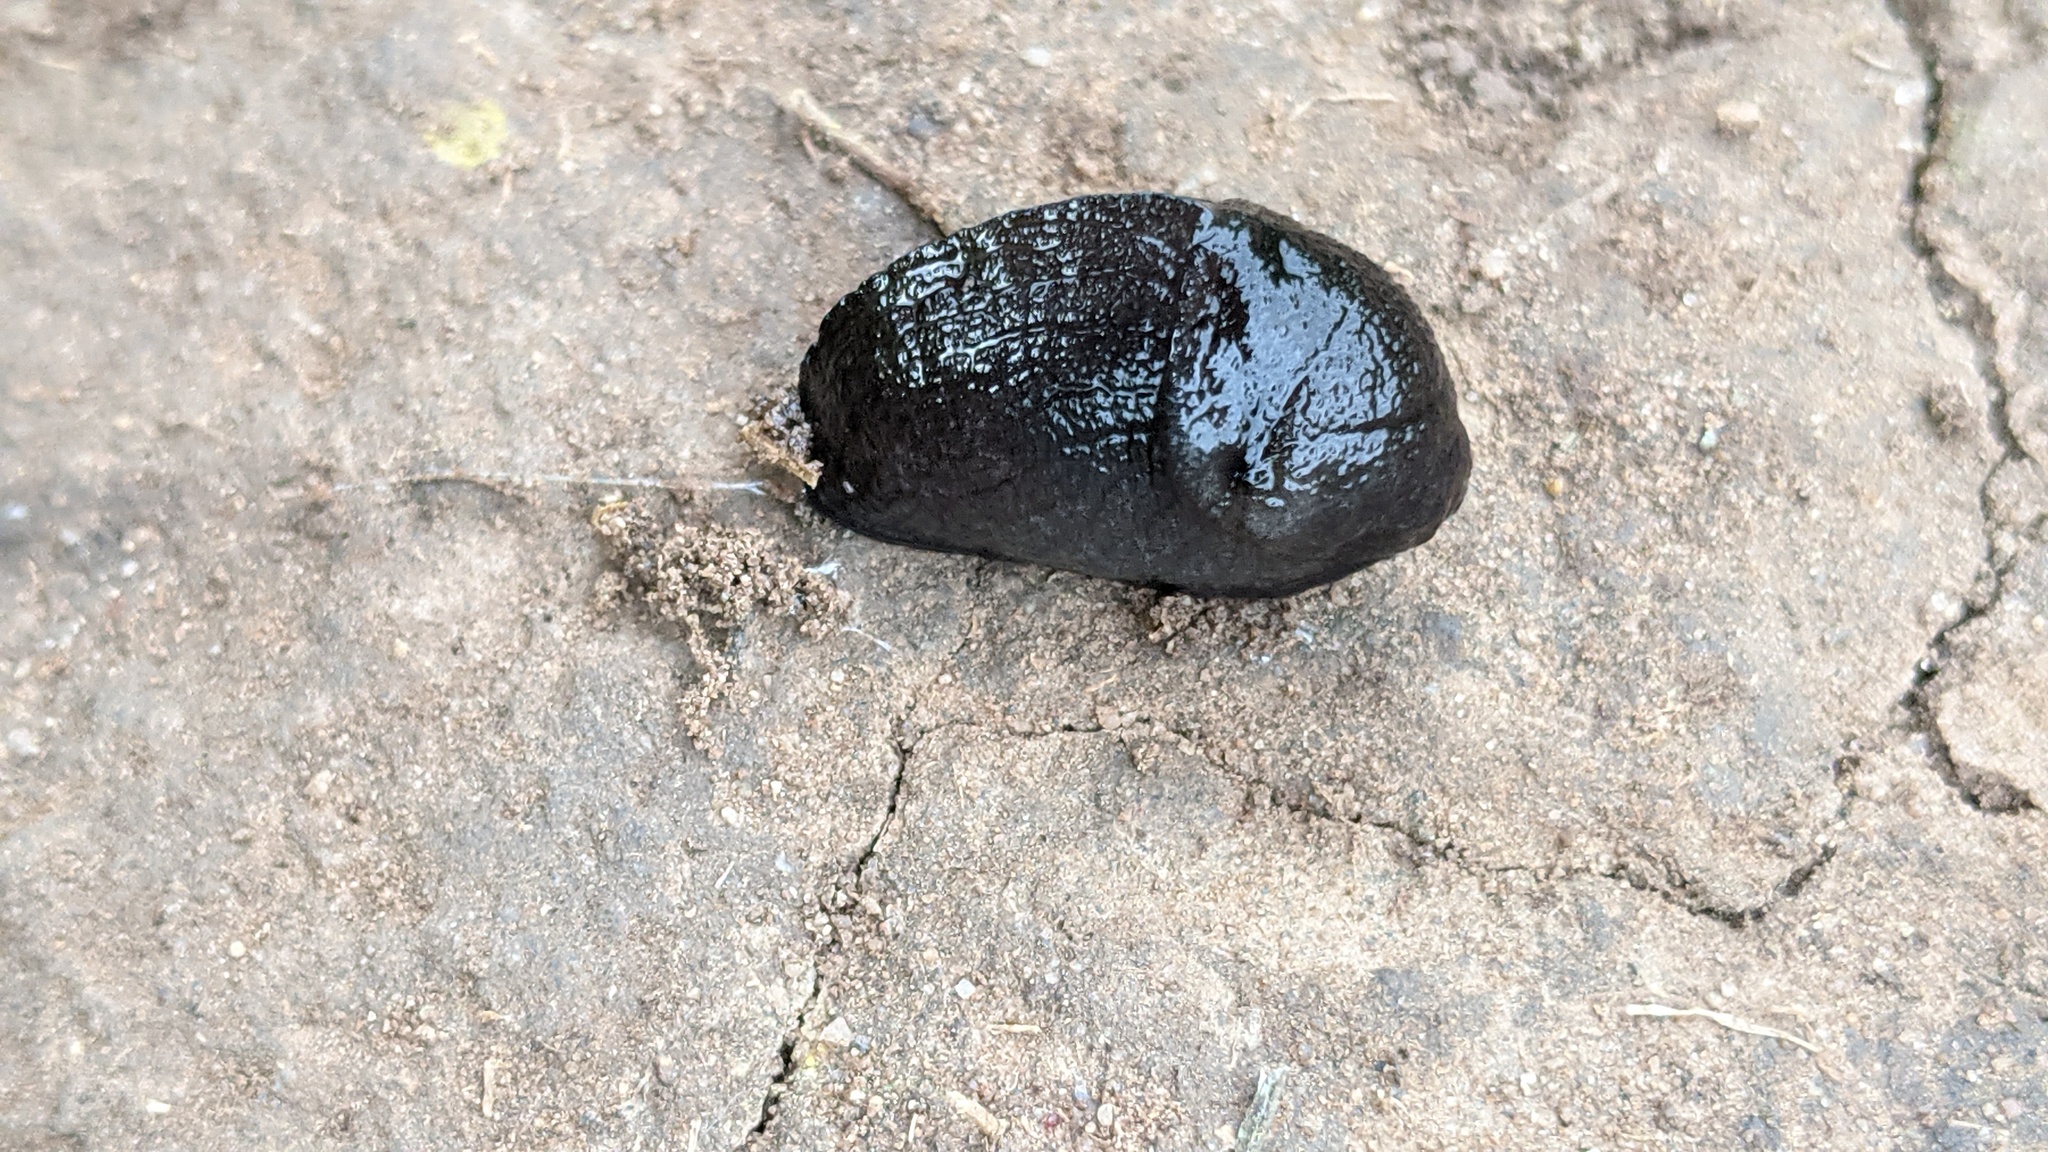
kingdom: Animalia
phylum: Mollusca
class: Gastropoda
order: Stylommatophora
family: Milacidae
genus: Milax
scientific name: Milax gagates
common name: Greenhouse slug
